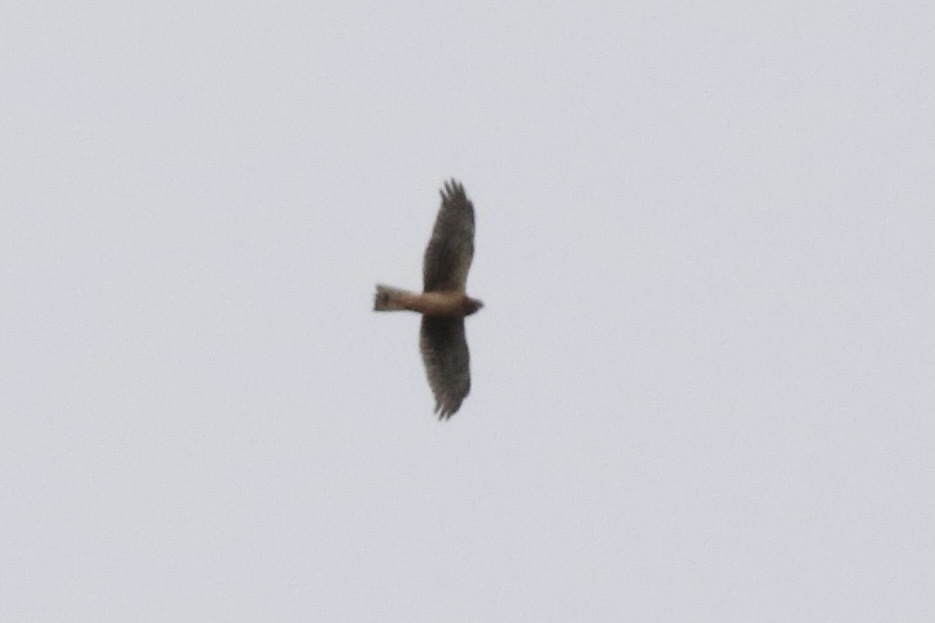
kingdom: Animalia
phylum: Chordata
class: Aves
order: Accipitriformes
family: Accipitridae
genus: Circus
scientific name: Circus cyaneus
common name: Hen harrier
